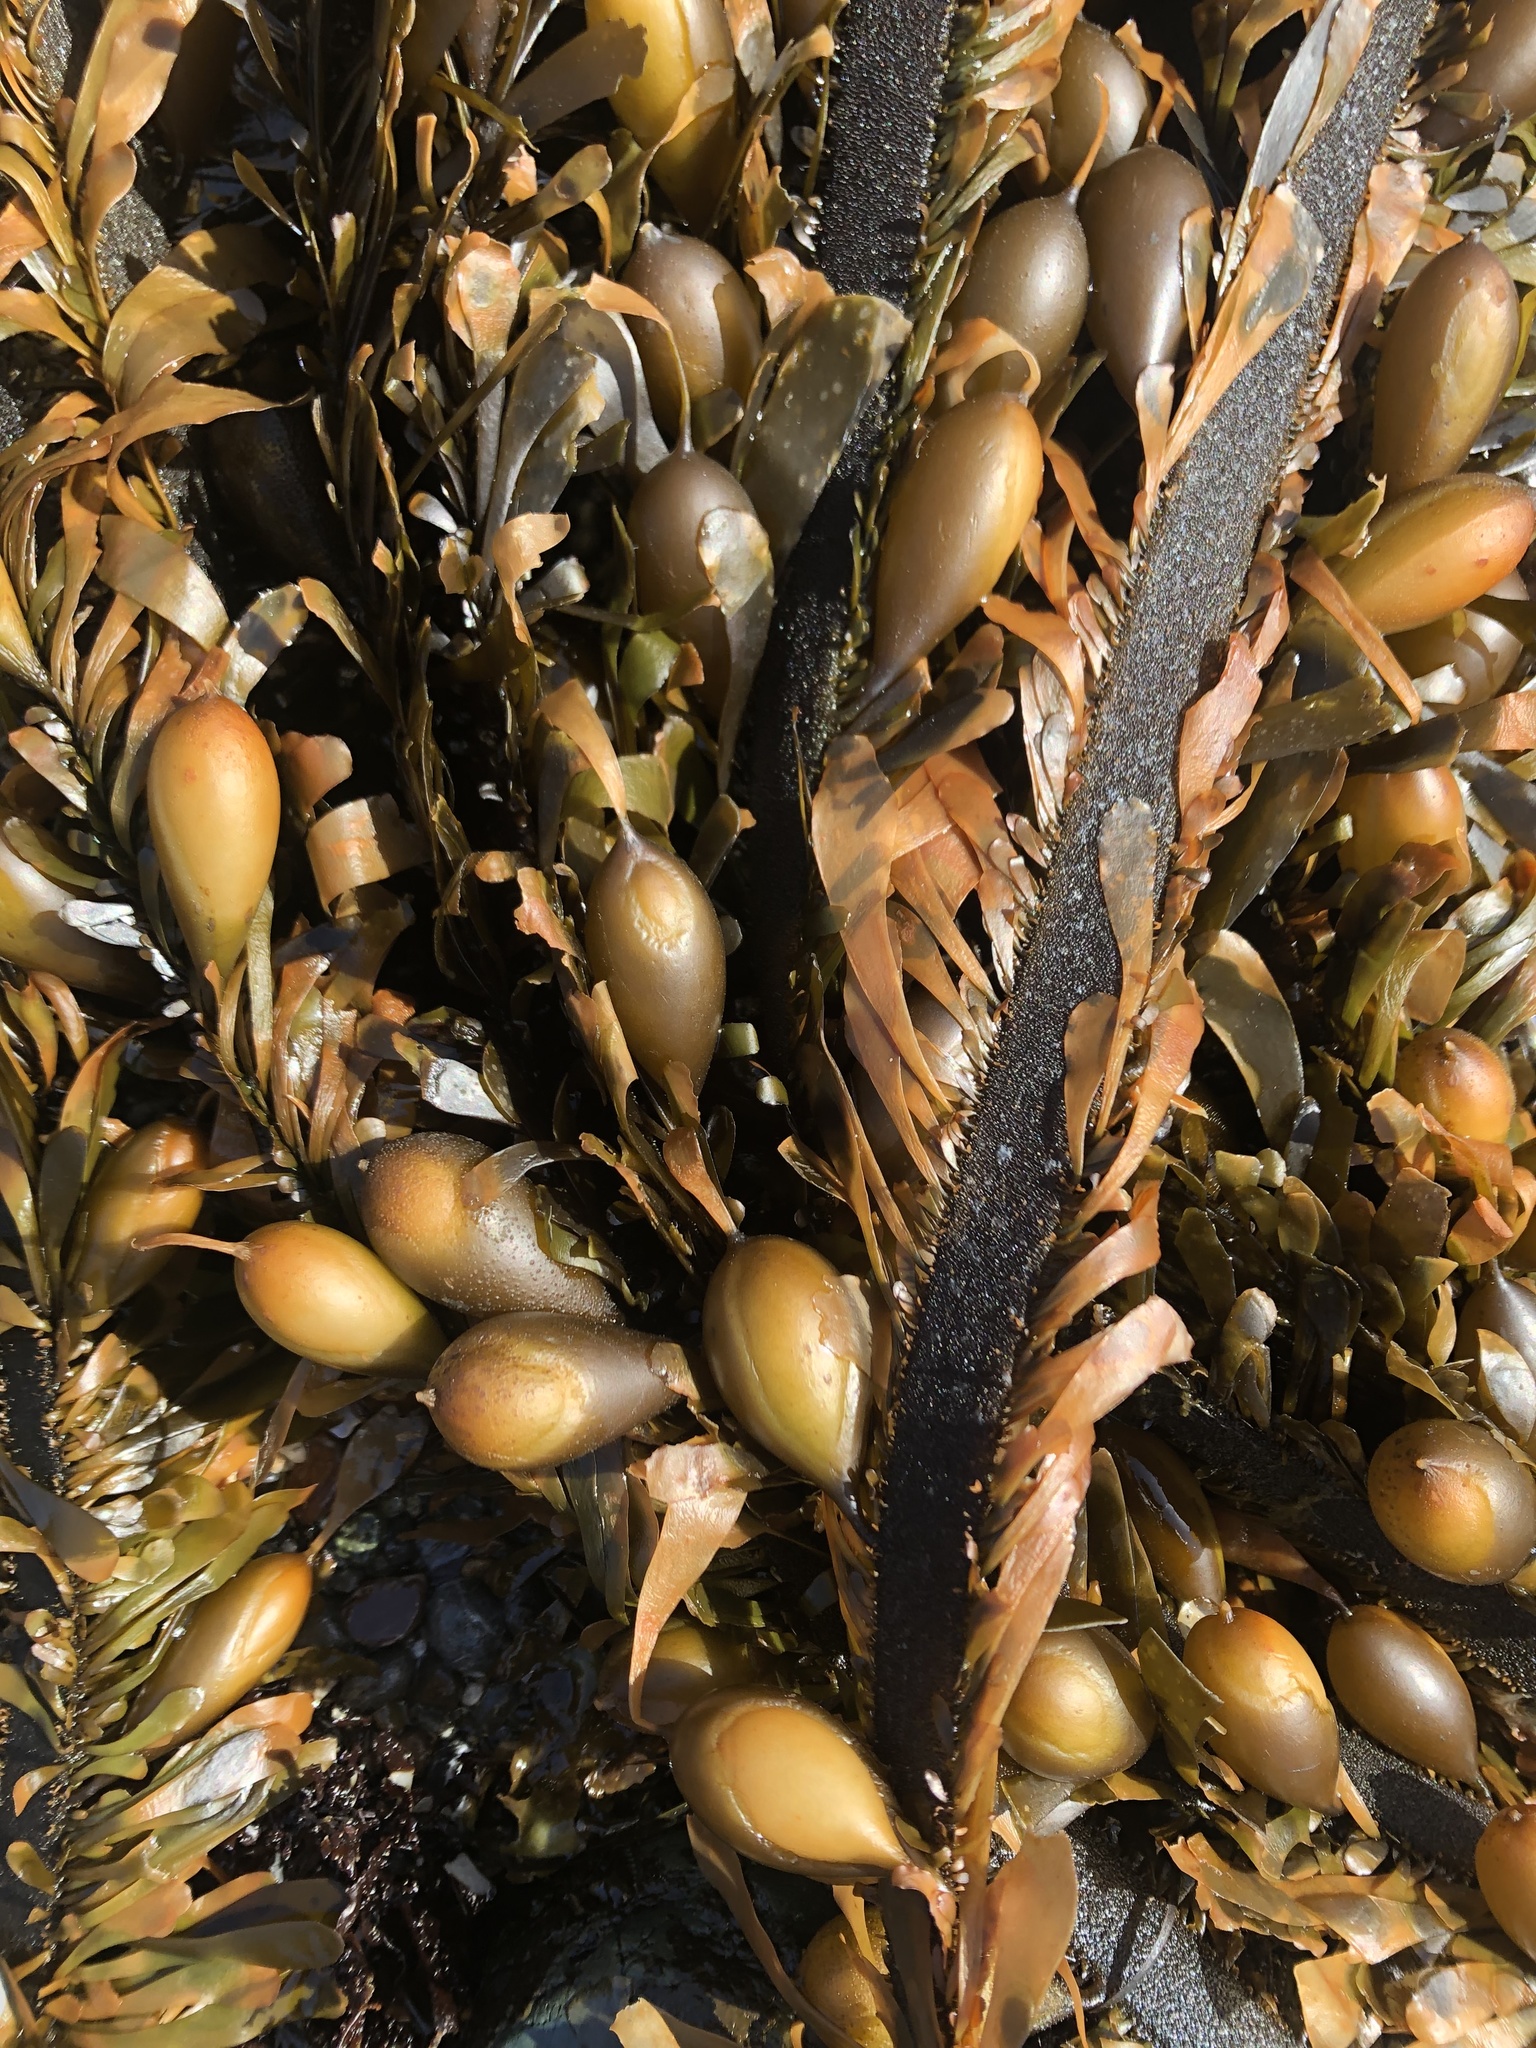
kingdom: Chromista
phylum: Ochrophyta
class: Phaeophyceae
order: Laminariales
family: Lessoniaceae
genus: Egregia
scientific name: Egregia menziesii
